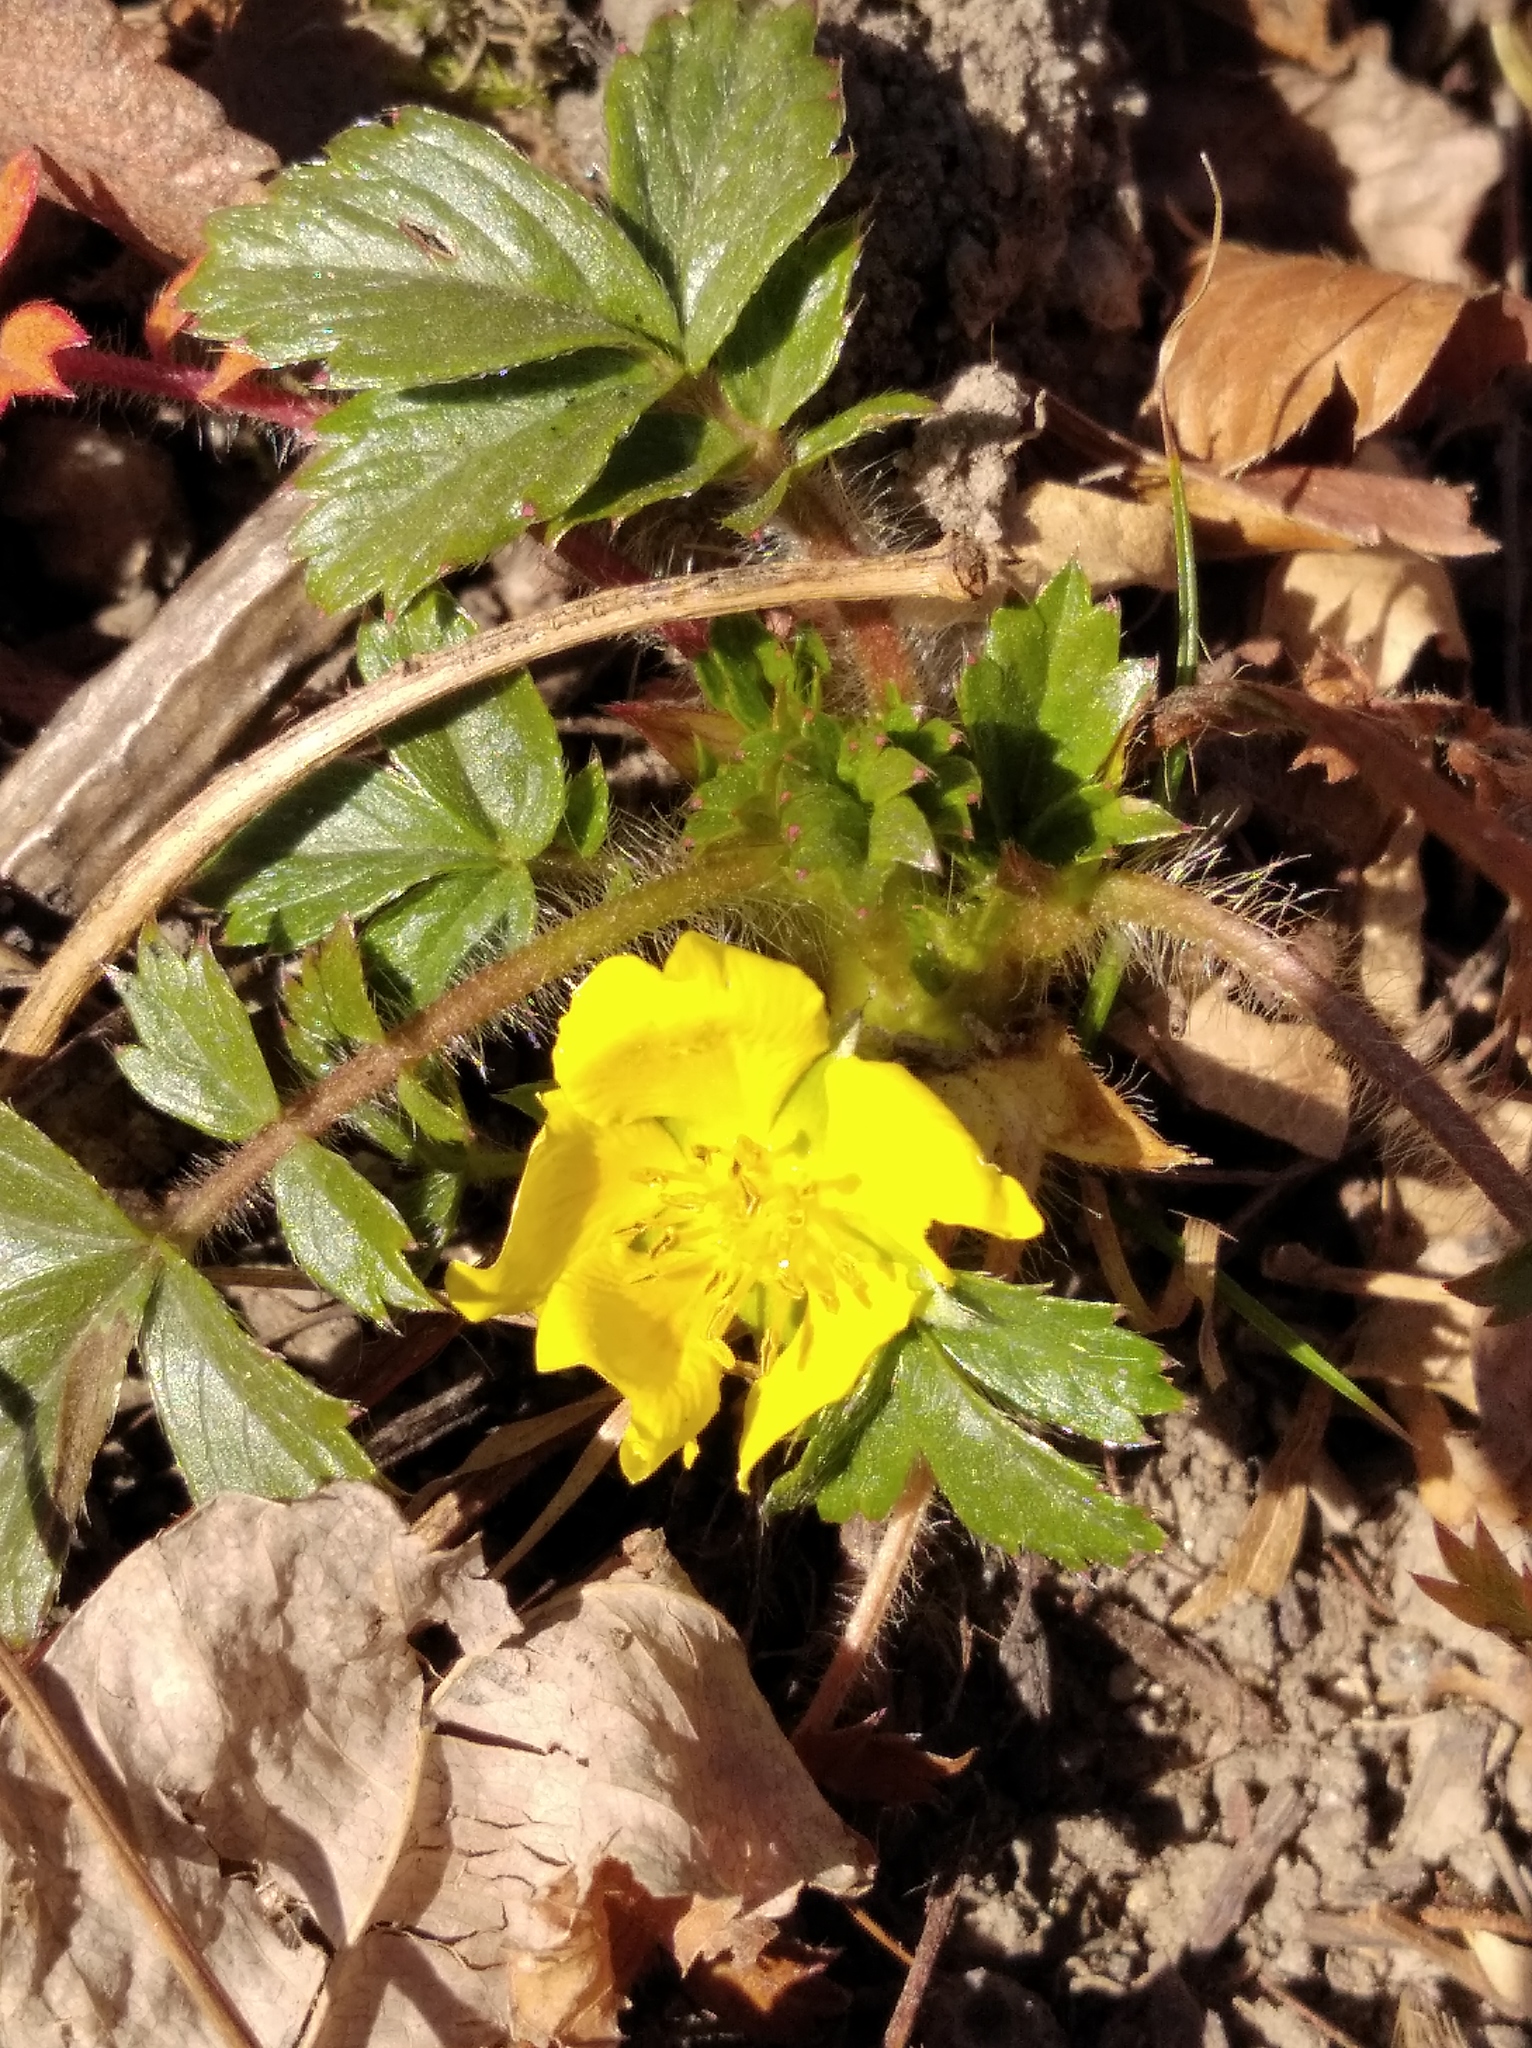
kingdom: Plantae
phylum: Tracheophyta
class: Magnoliopsida
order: Rosales
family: Rosaceae
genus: Potentilla
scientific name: Potentilla fragarioides
